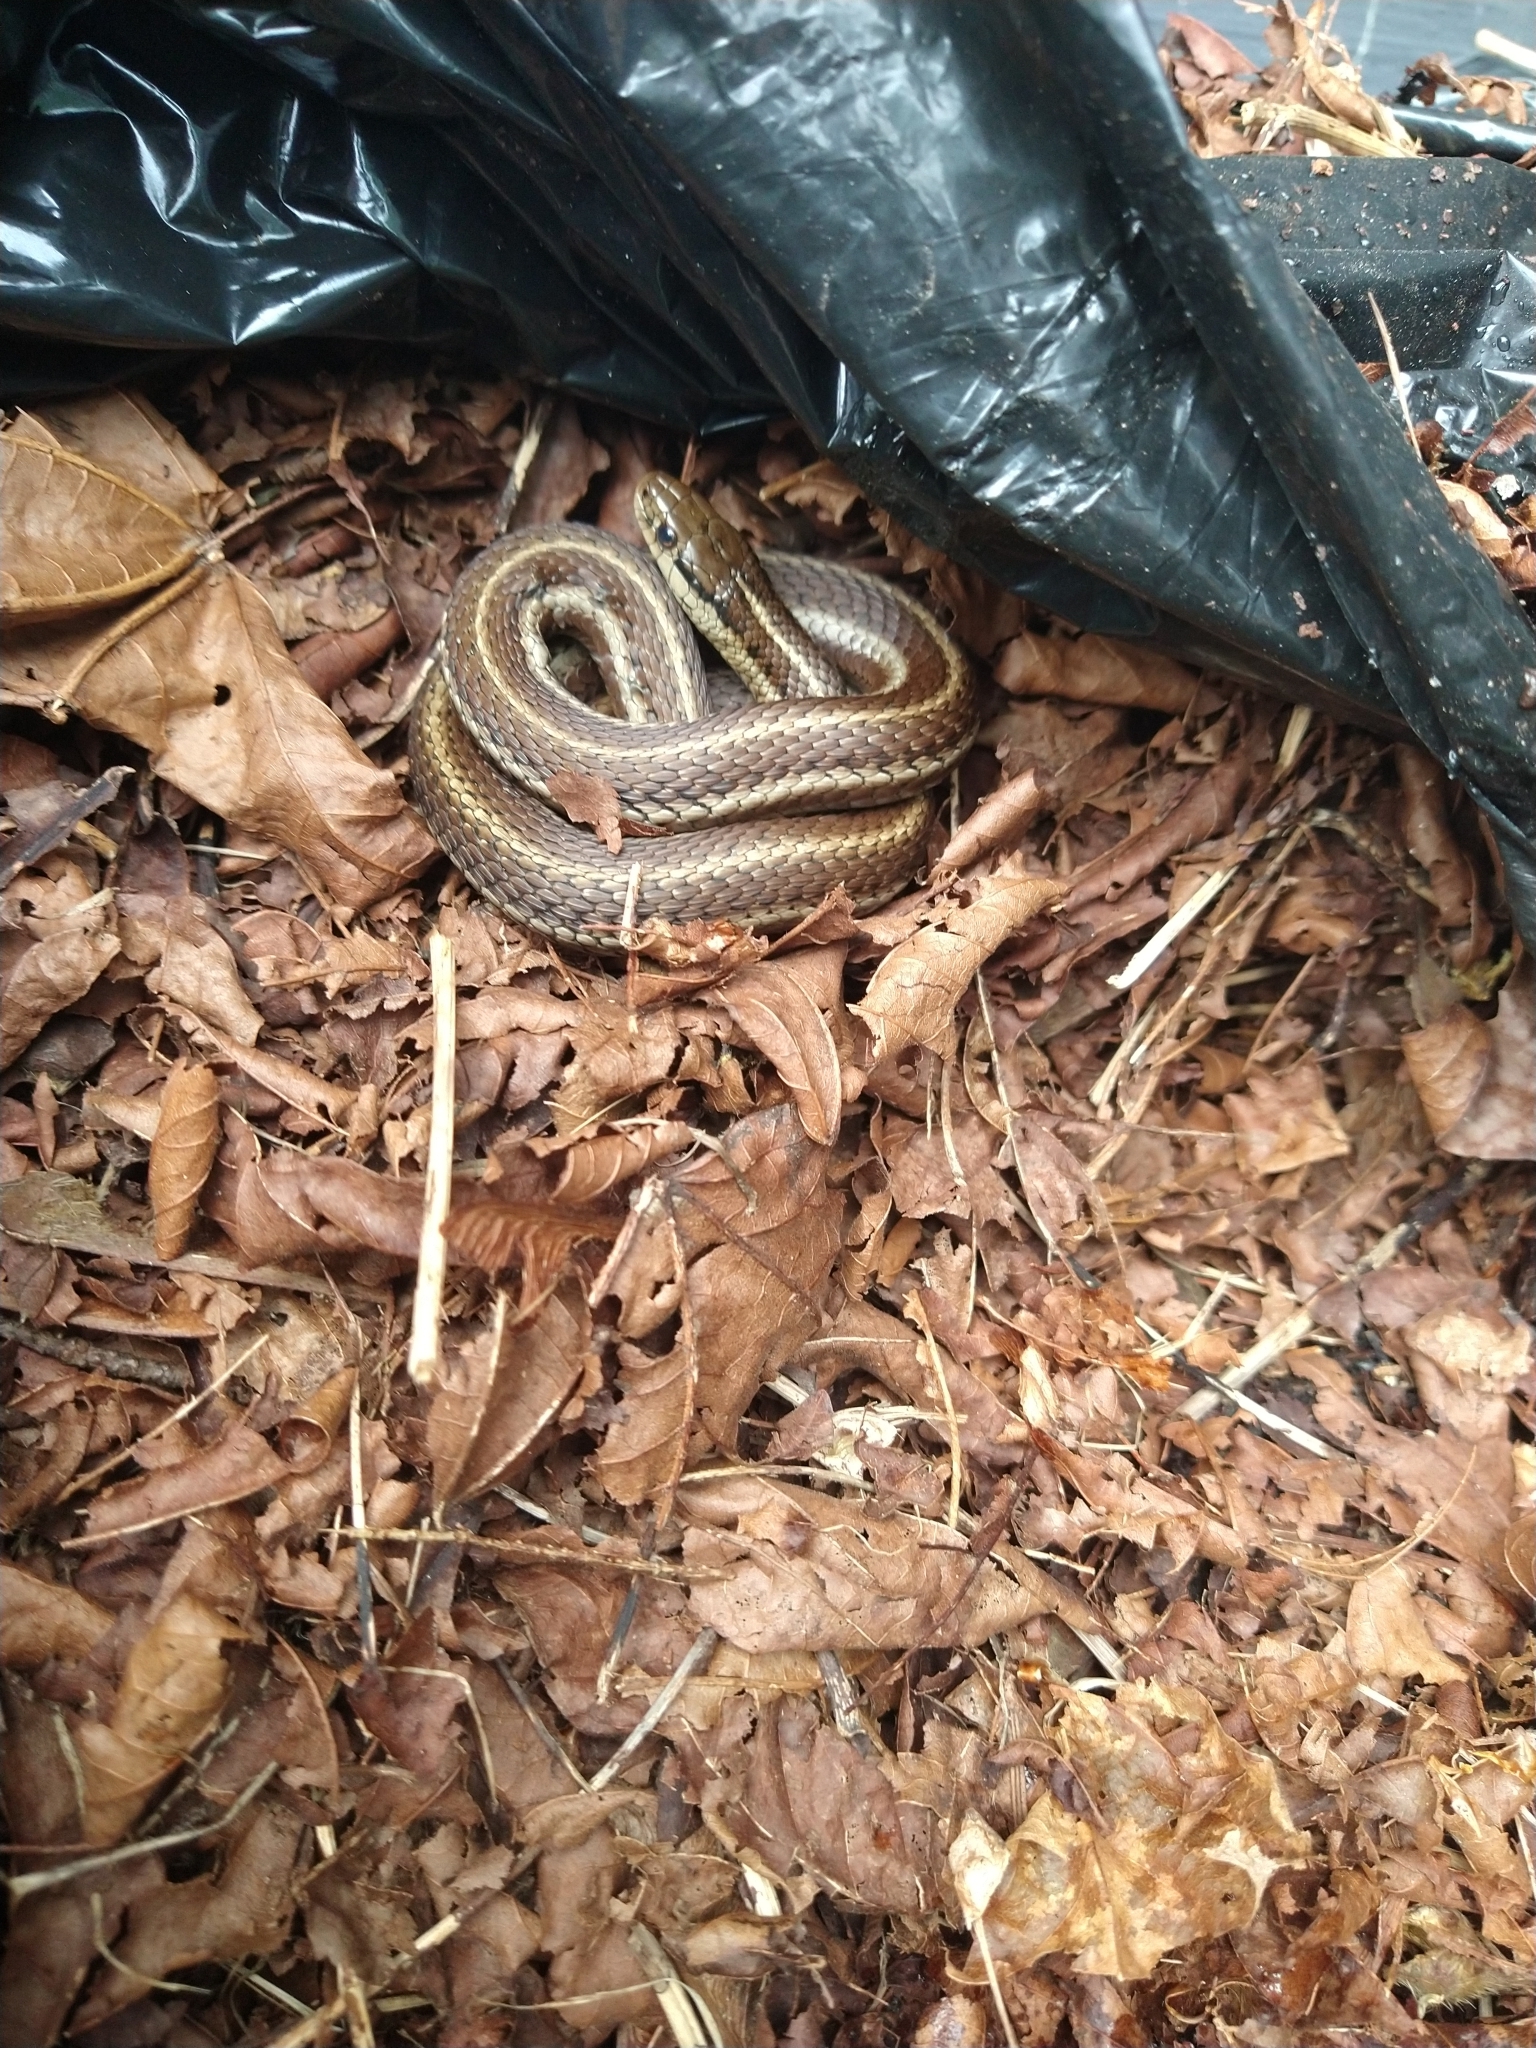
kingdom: Animalia
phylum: Chordata
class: Squamata
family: Colubridae
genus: Thamnophis
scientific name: Thamnophis ordinoides
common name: Northwestern garter snake
